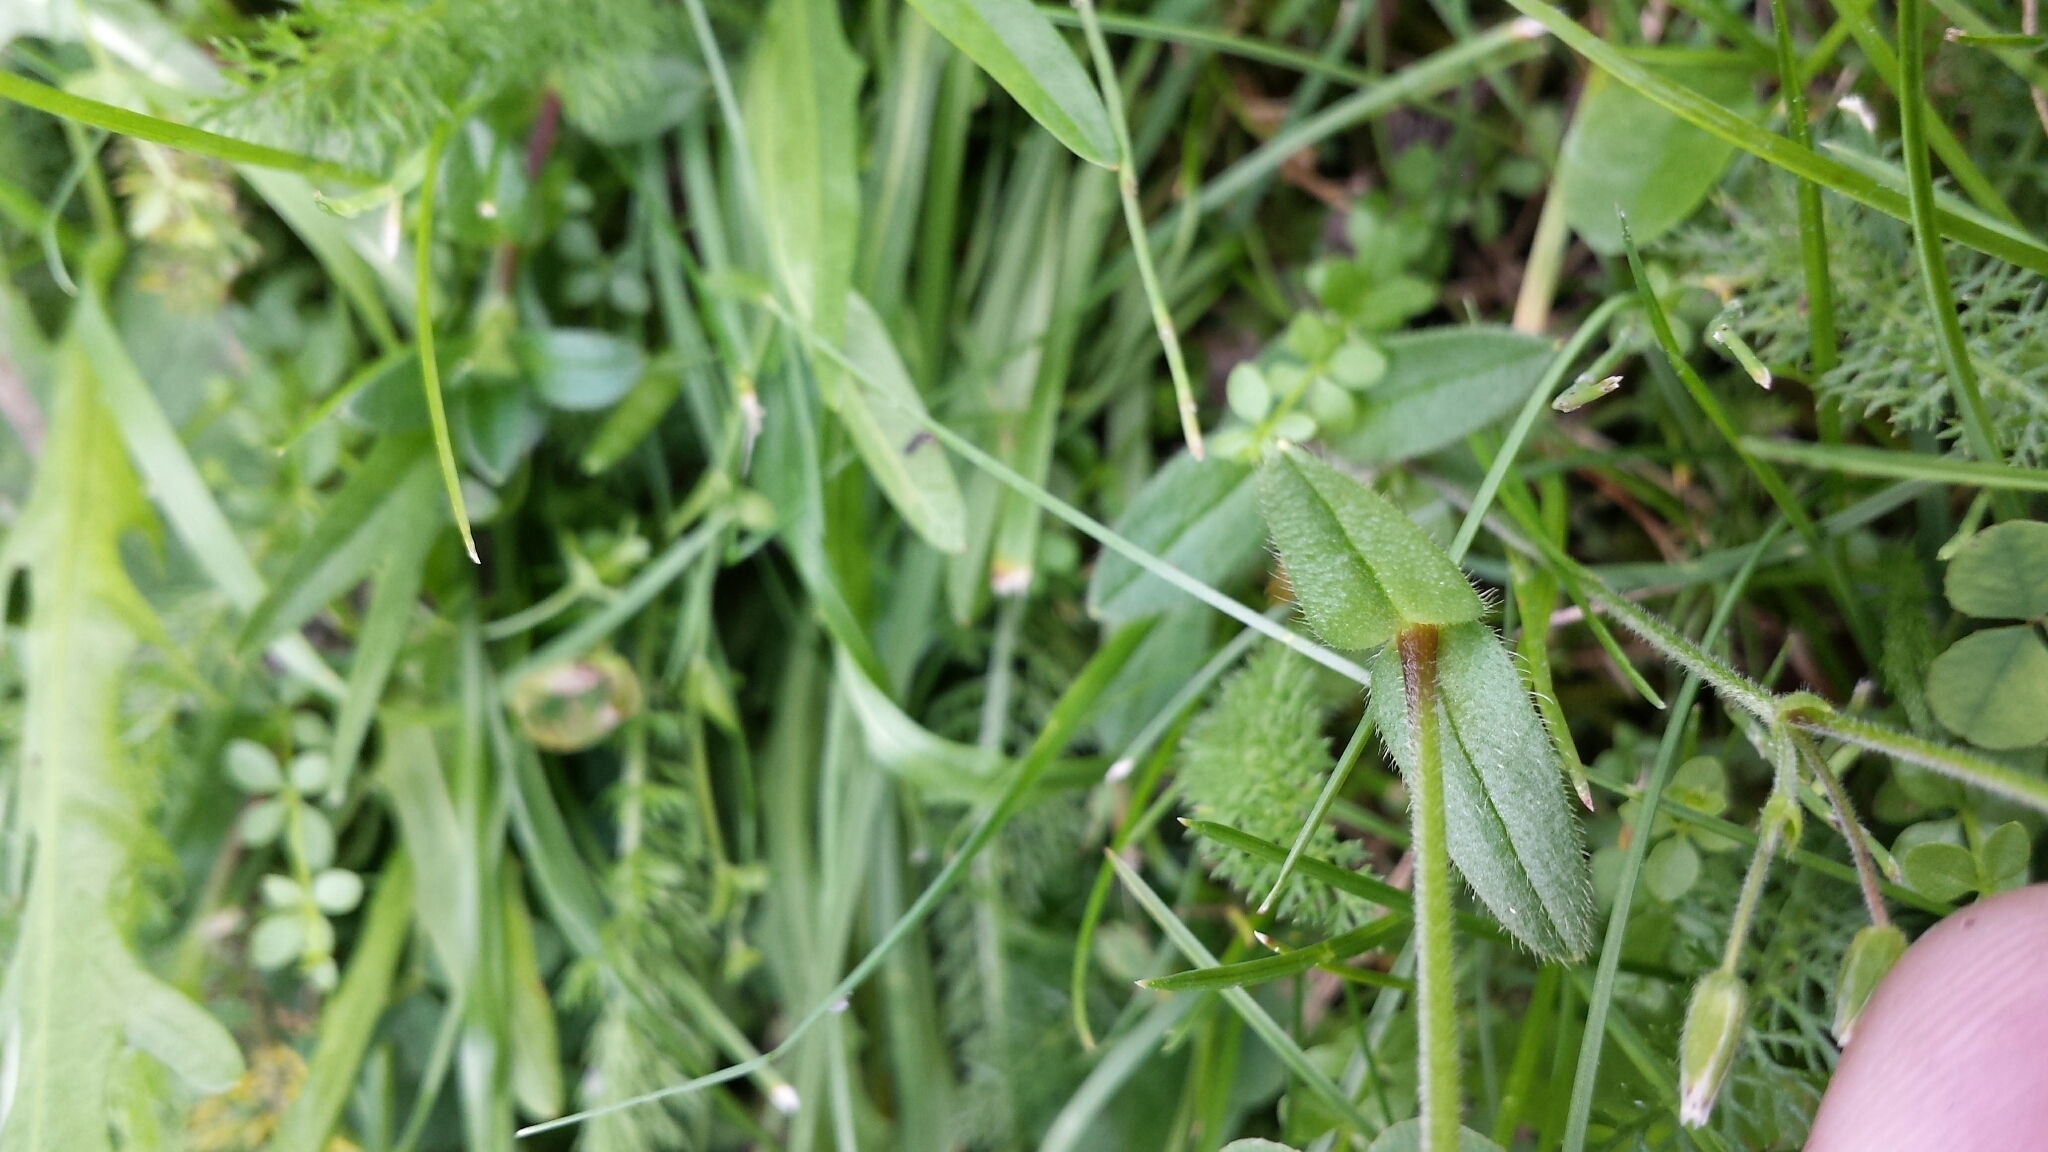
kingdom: Plantae
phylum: Tracheophyta
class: Magnoliopsida
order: Caryophyllales
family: Caryophyllaceae
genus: Cerastium
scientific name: Cerastium holosteoides
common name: Big chickweed
